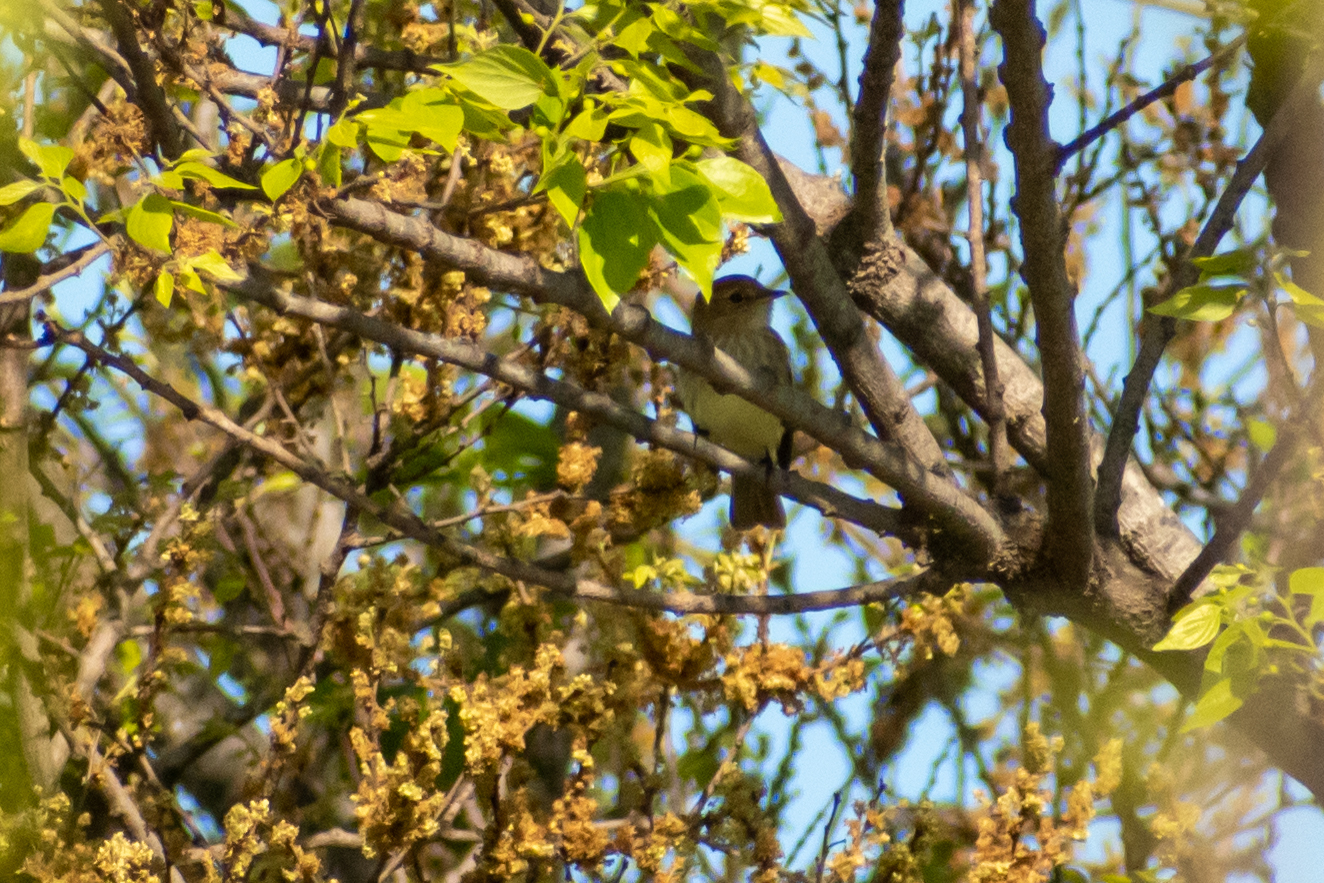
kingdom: Animalia
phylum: Chordata
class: Aves
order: Passeriformes
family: Tyrannidae
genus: Myiophobus
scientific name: Myiophobus fasciatus
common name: Bran-colored flycatcher
